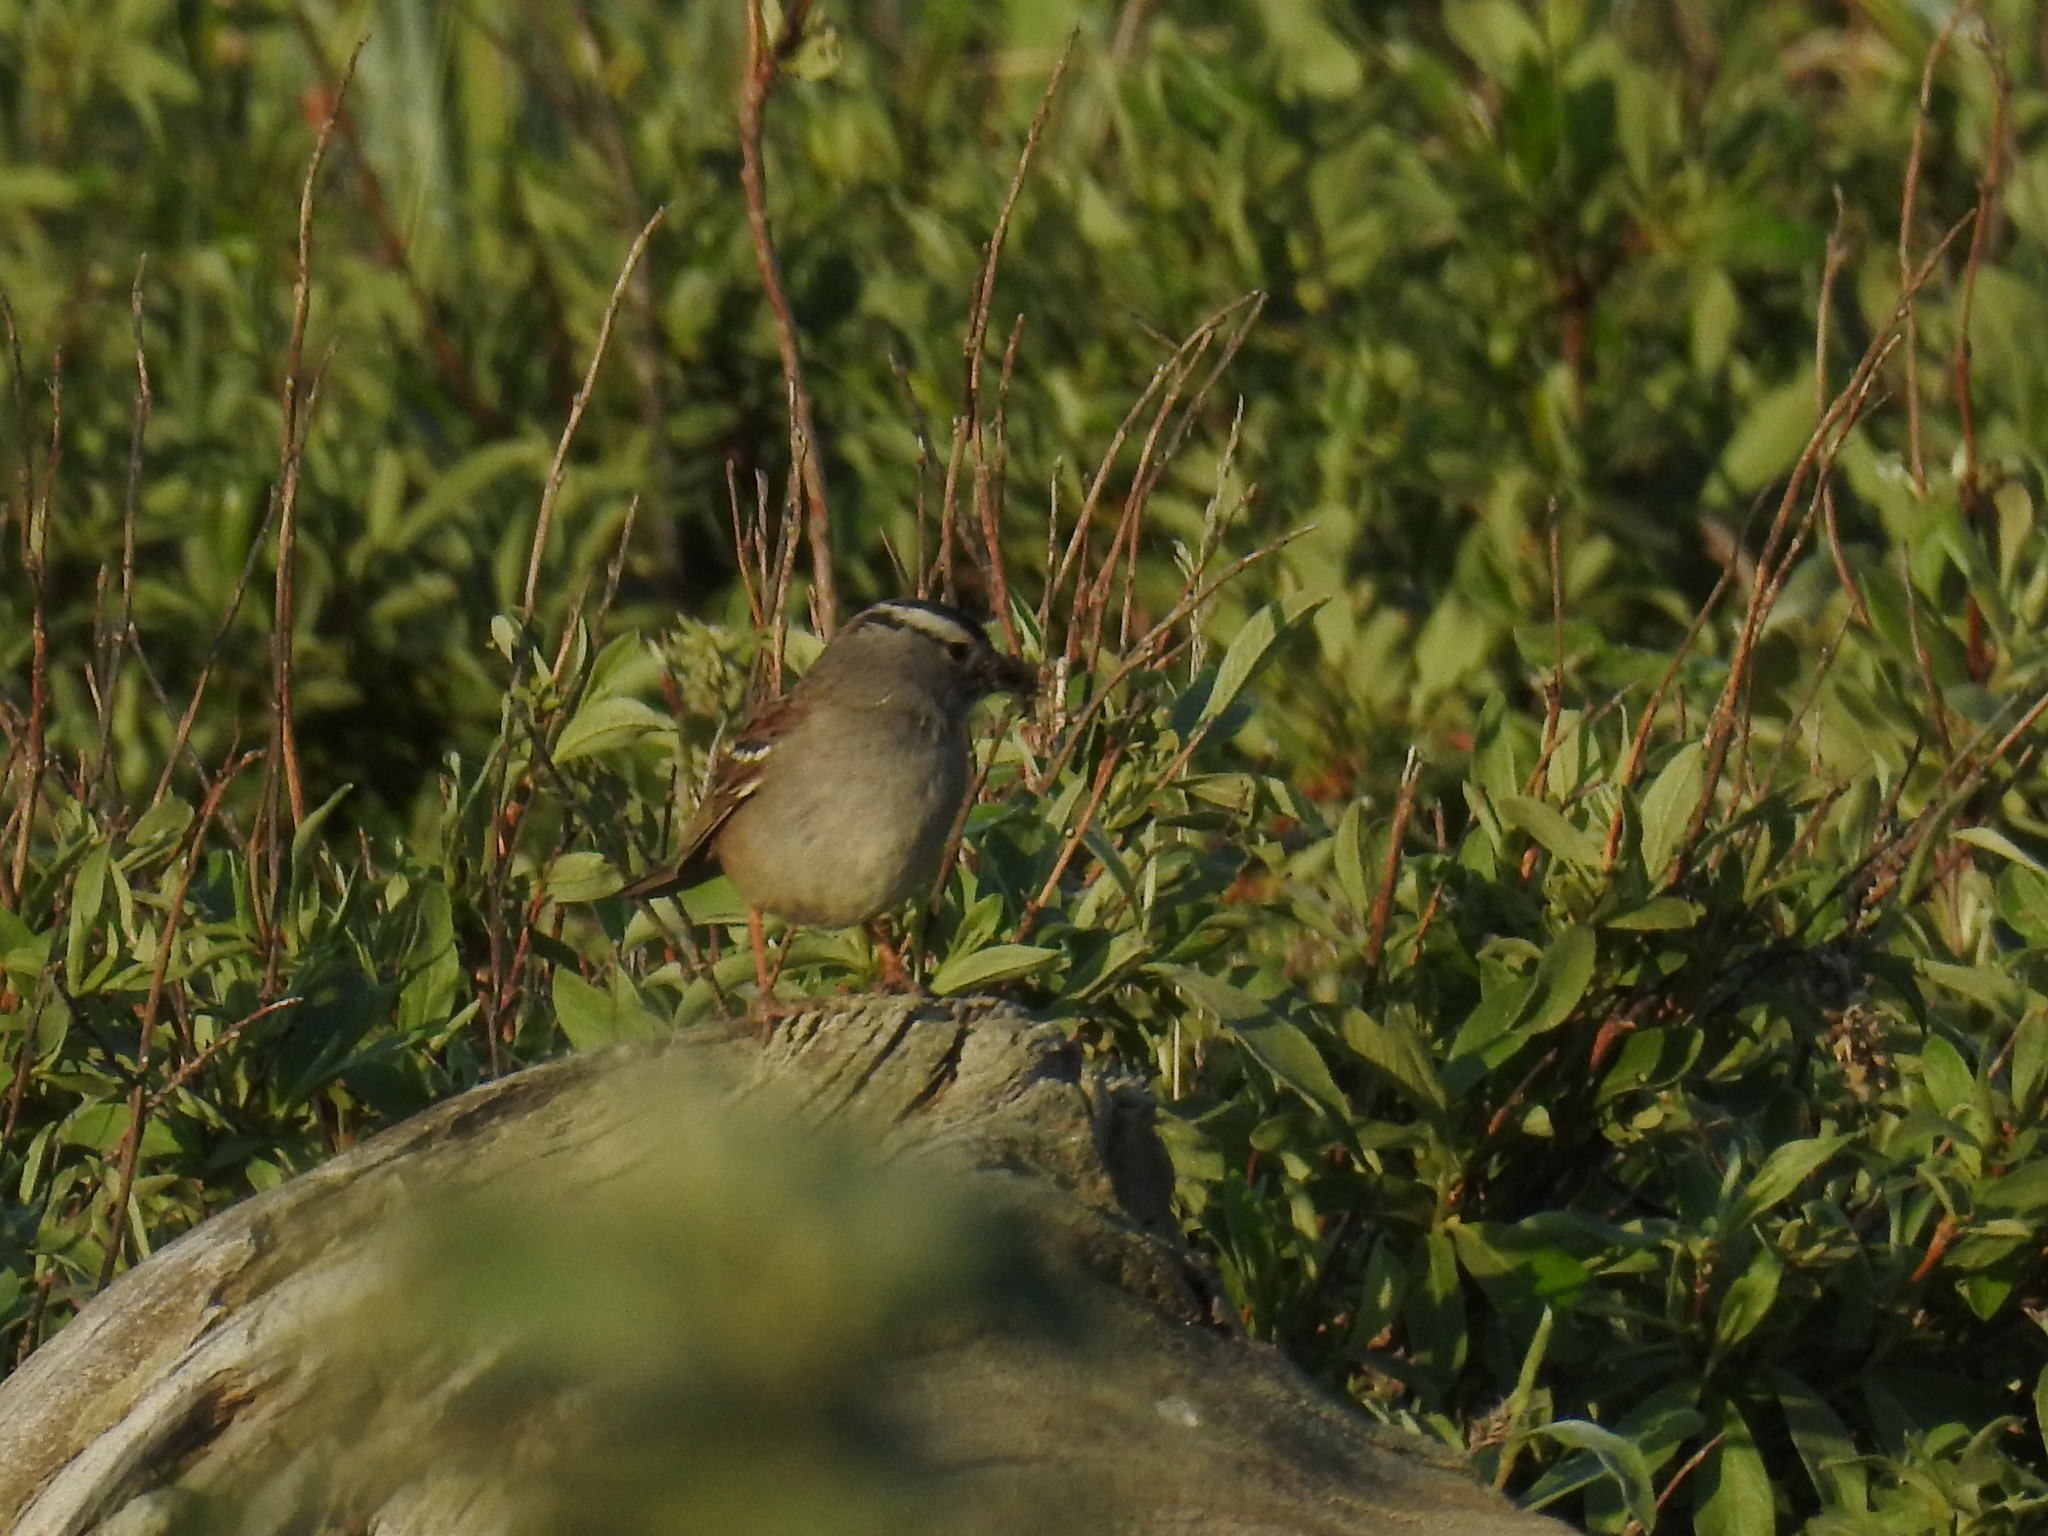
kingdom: Animalia
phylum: Chordata
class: Aves
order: Passeriformes
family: Passerellidae
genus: Zonotrichia
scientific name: Zonotrichia leucophrys
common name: White-crowned sparrow
